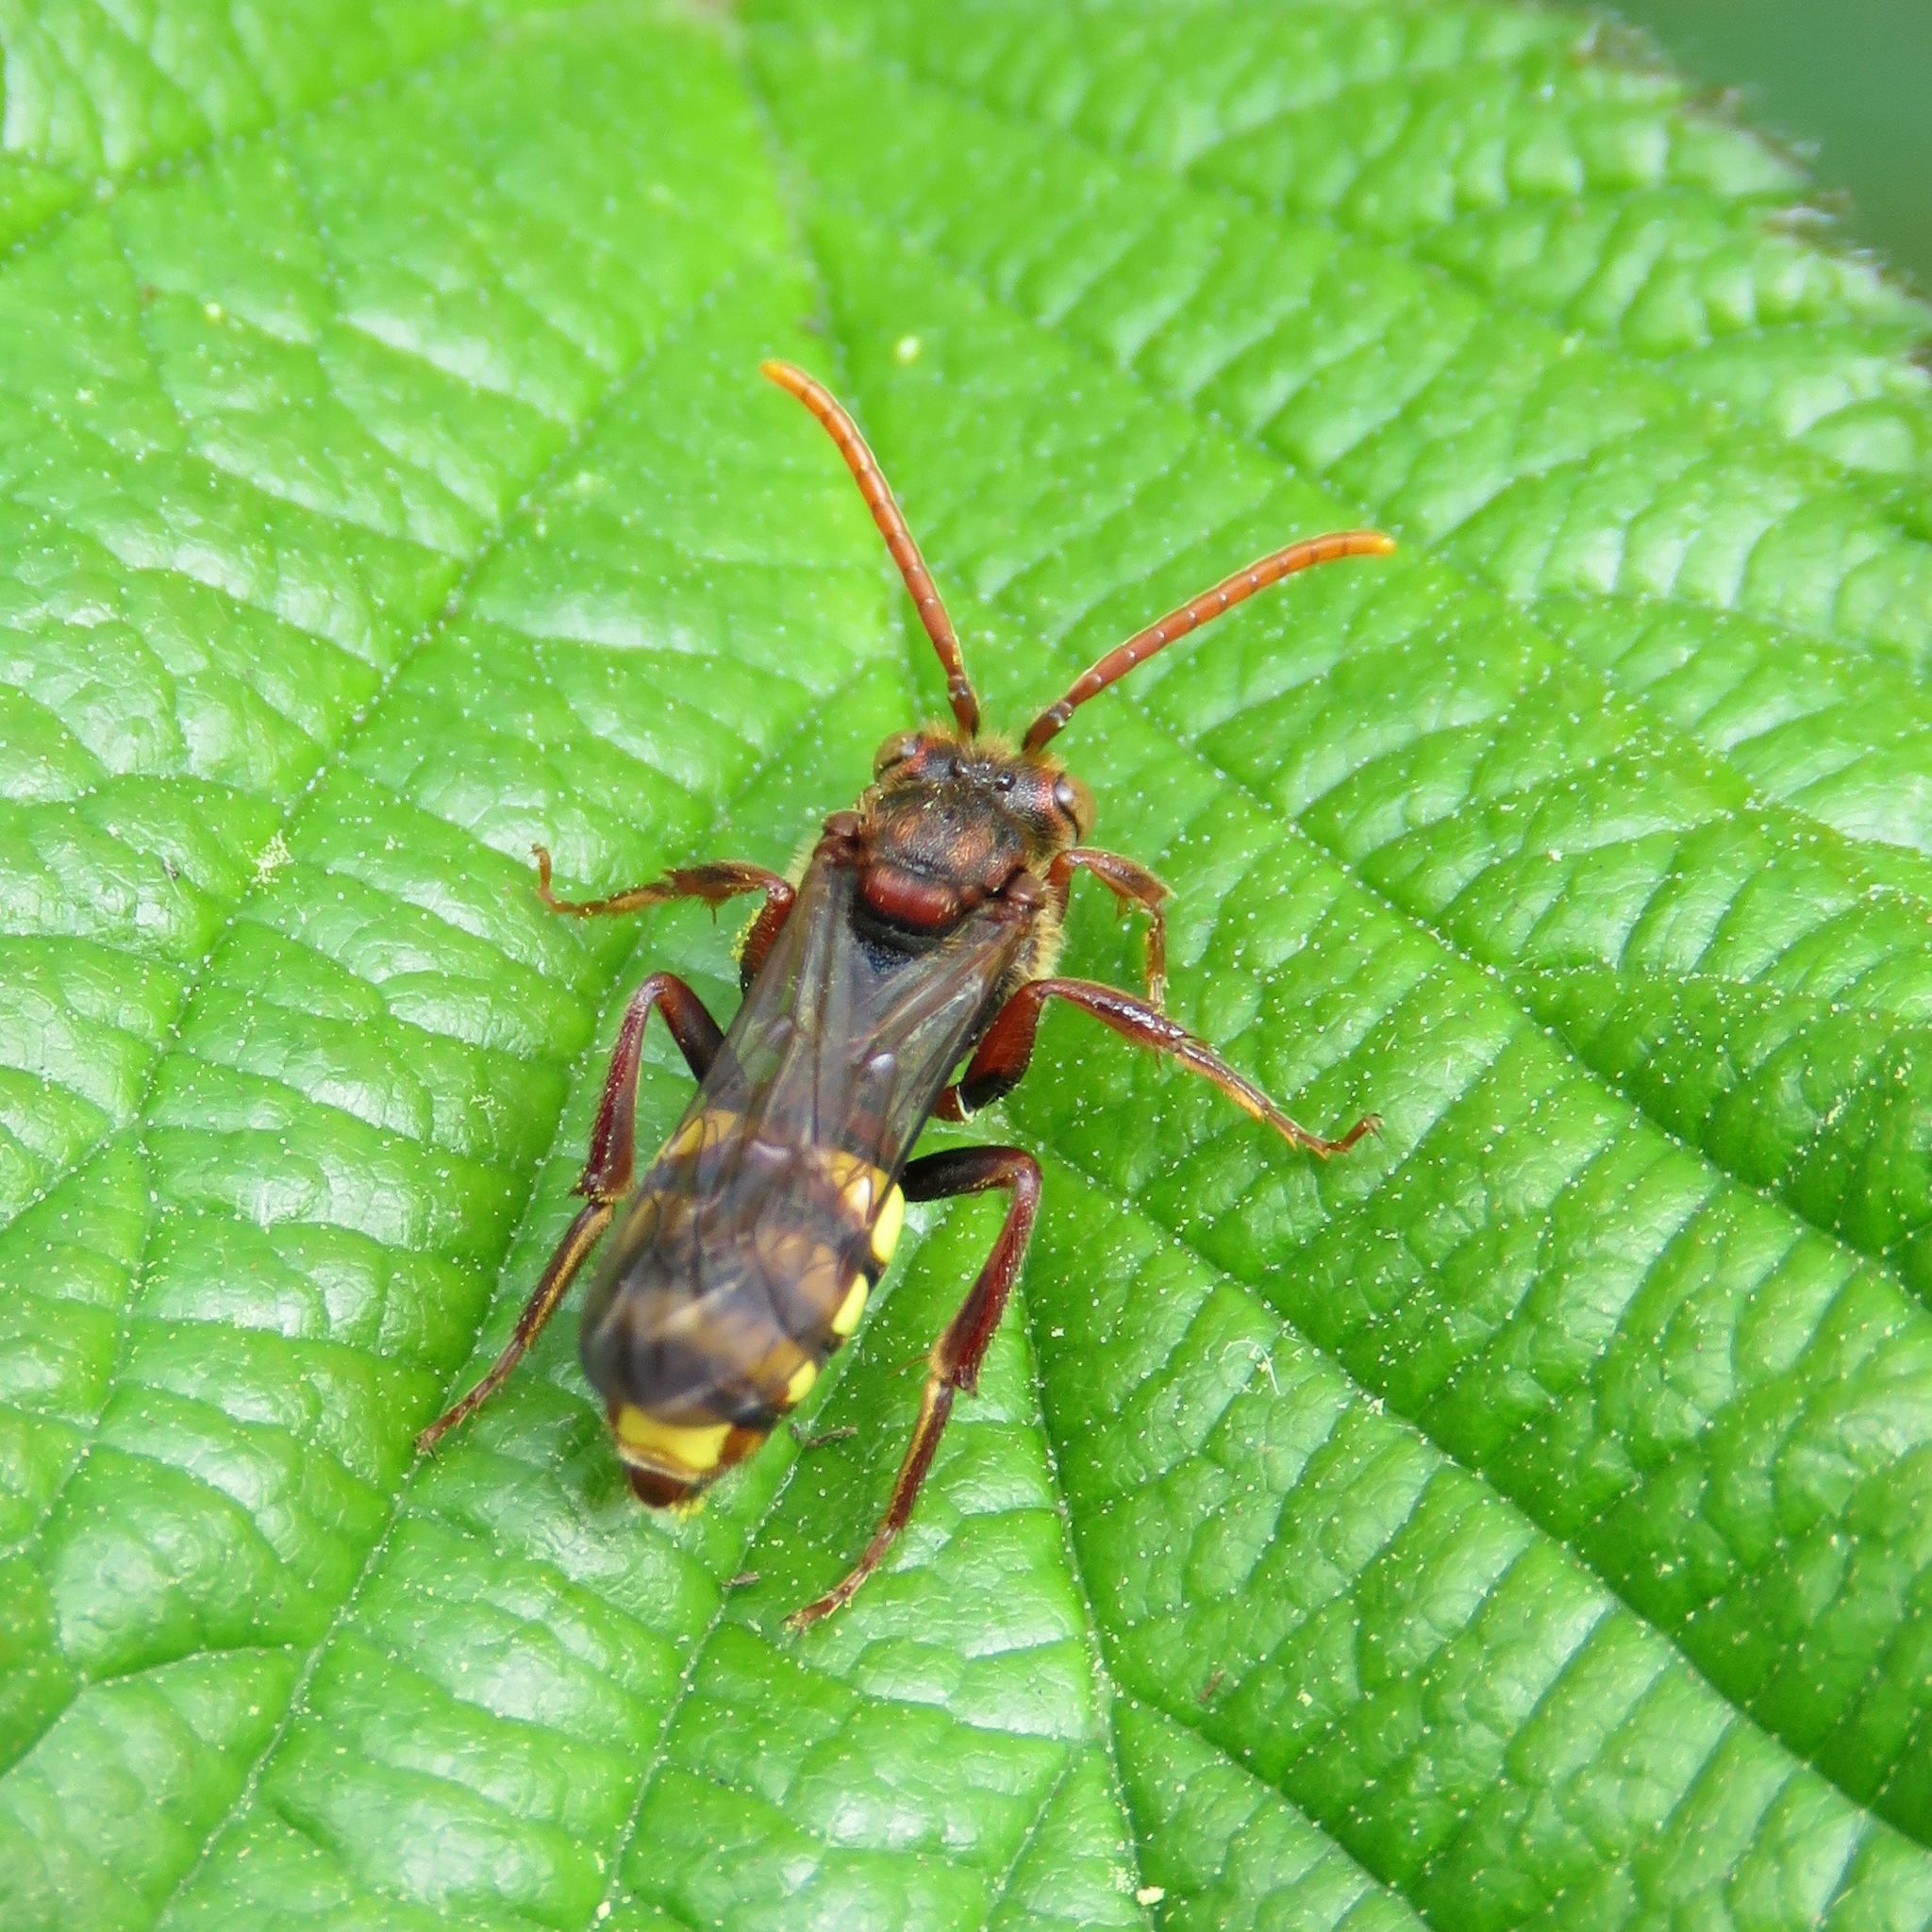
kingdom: Animalia
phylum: Arthropoda
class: Insecta
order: Hymenoptera
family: Apidae
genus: Nomada
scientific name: Nomada
